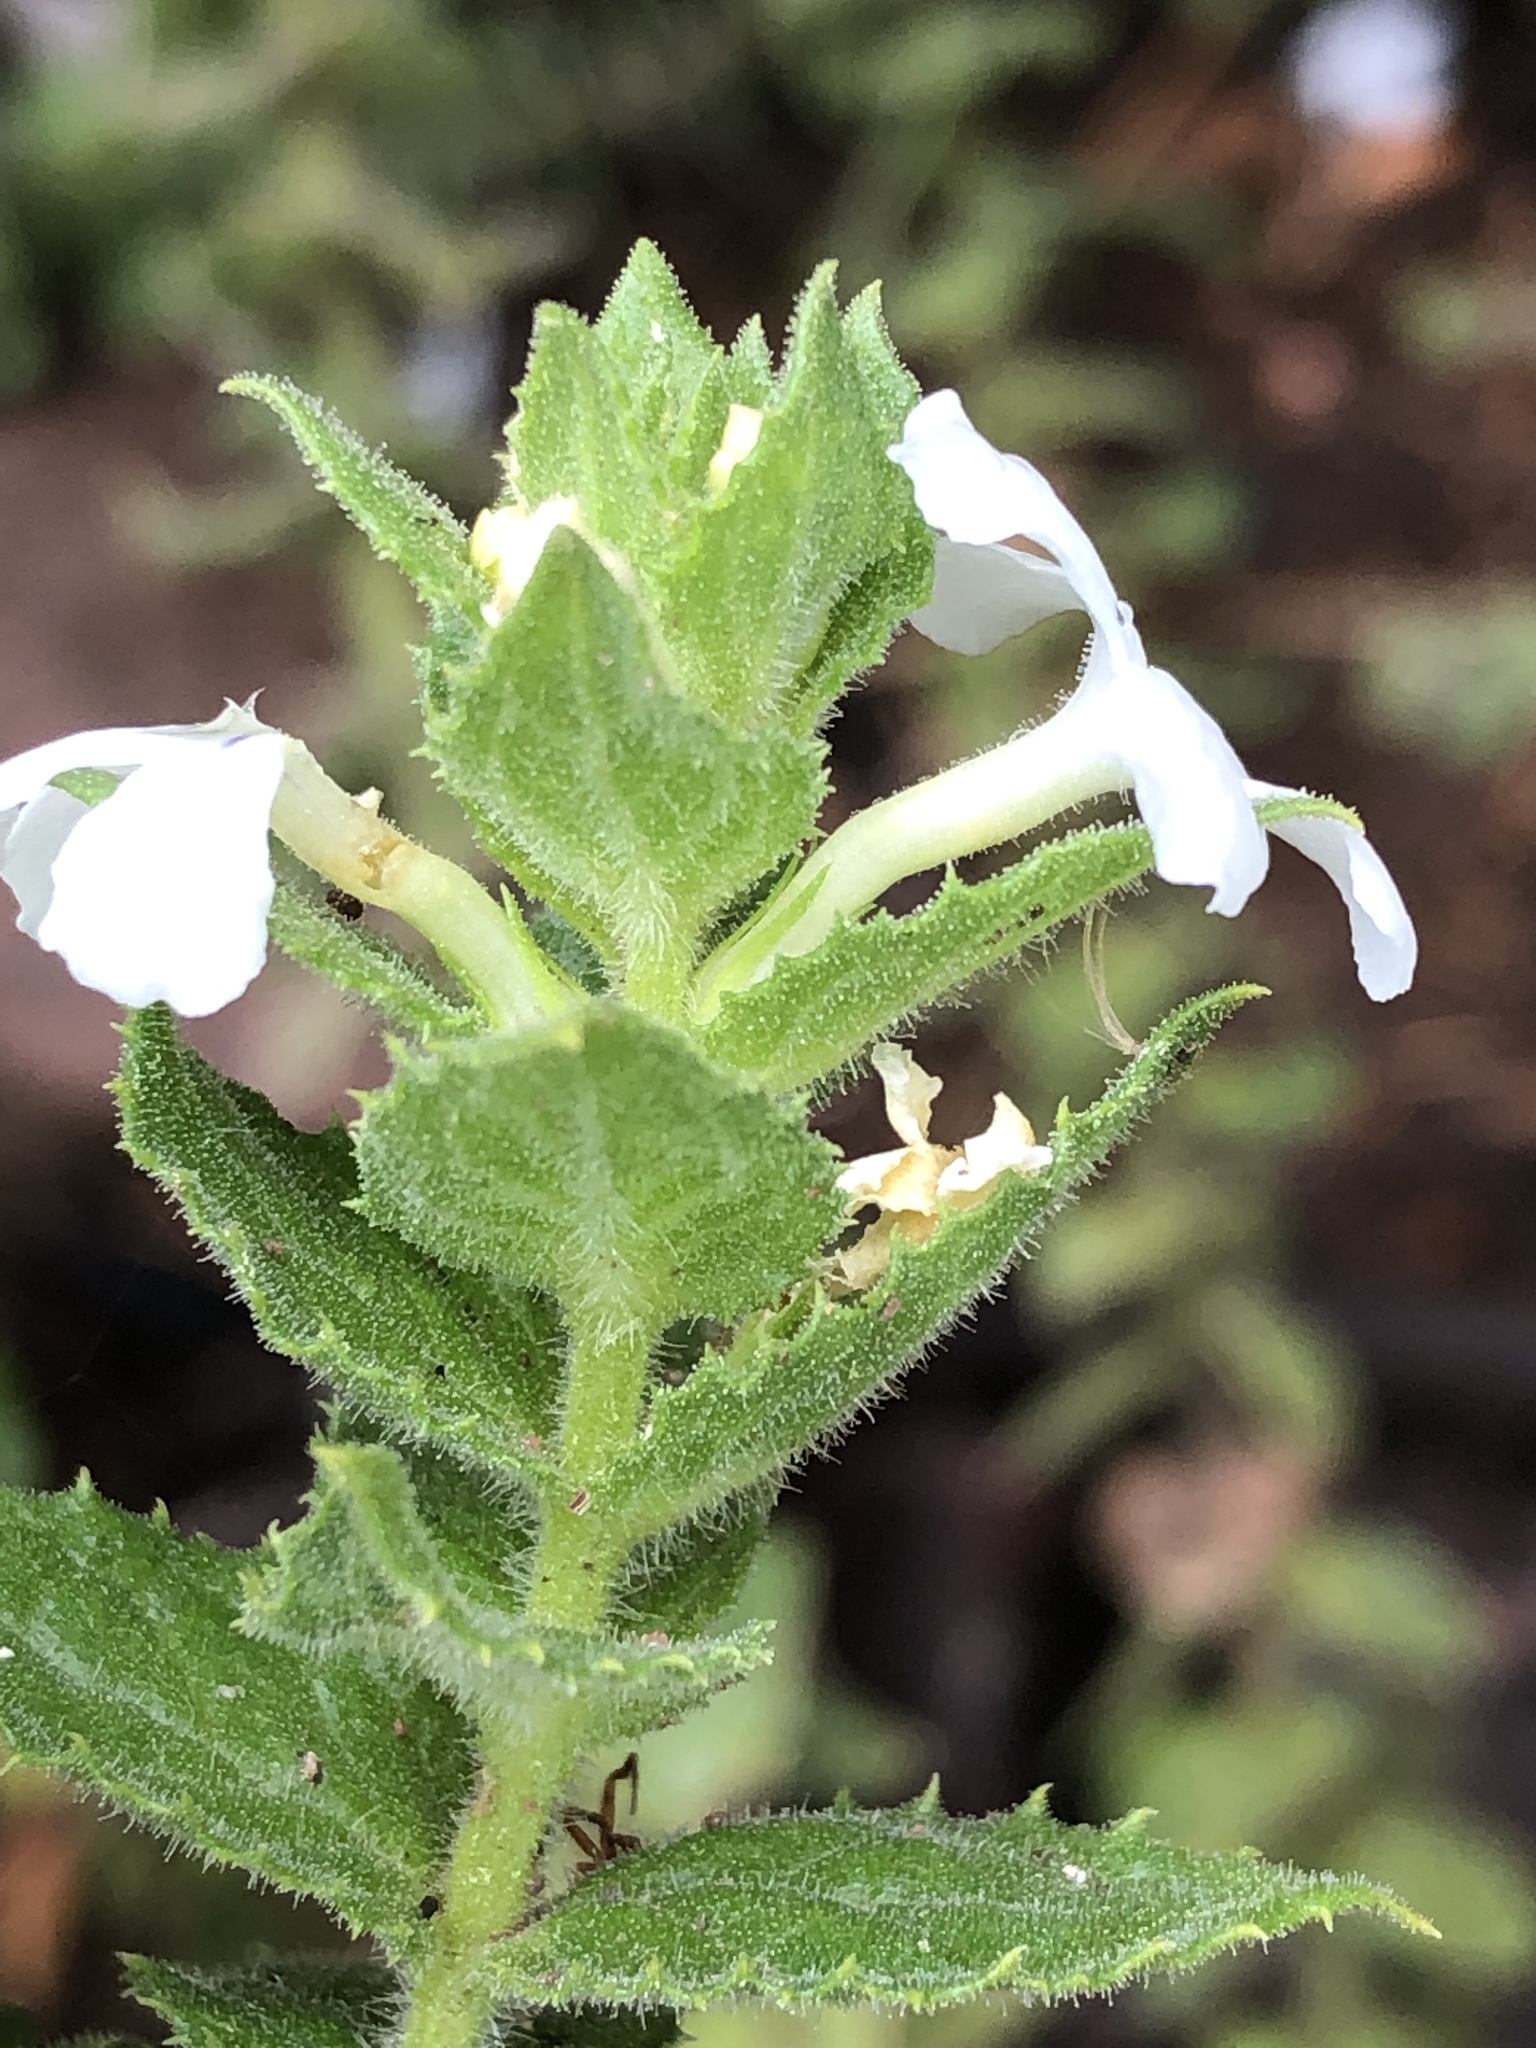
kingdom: Plantae
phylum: Tracheophyta
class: Magnoliopsida
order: Lamiales
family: Scrophulariaceae
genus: Oftia
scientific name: Oftia africana
